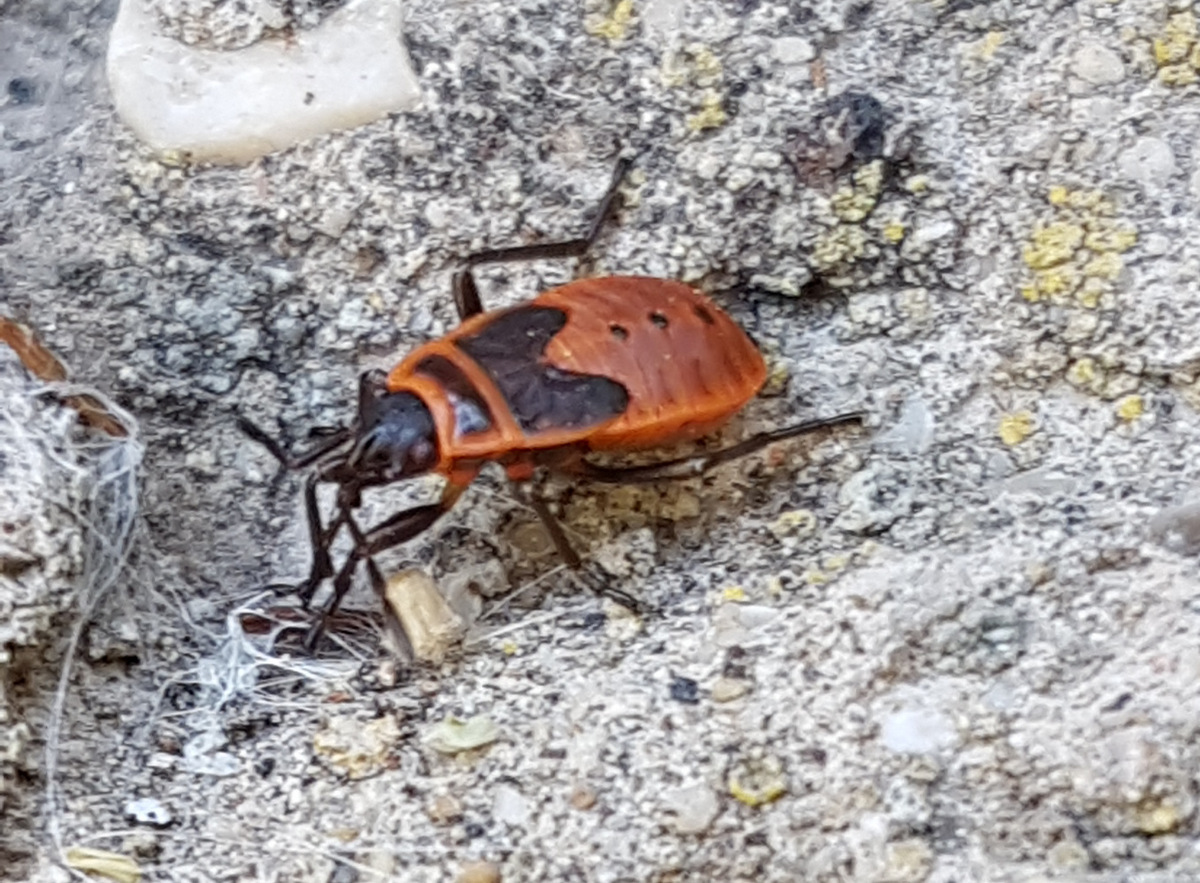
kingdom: Animalia
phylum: Arthropoda
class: Insecta
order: Hemiptera
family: Pyrrhocoridae
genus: Pyrrhocoris
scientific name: Pyrrhocoris apterus
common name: Firebug
